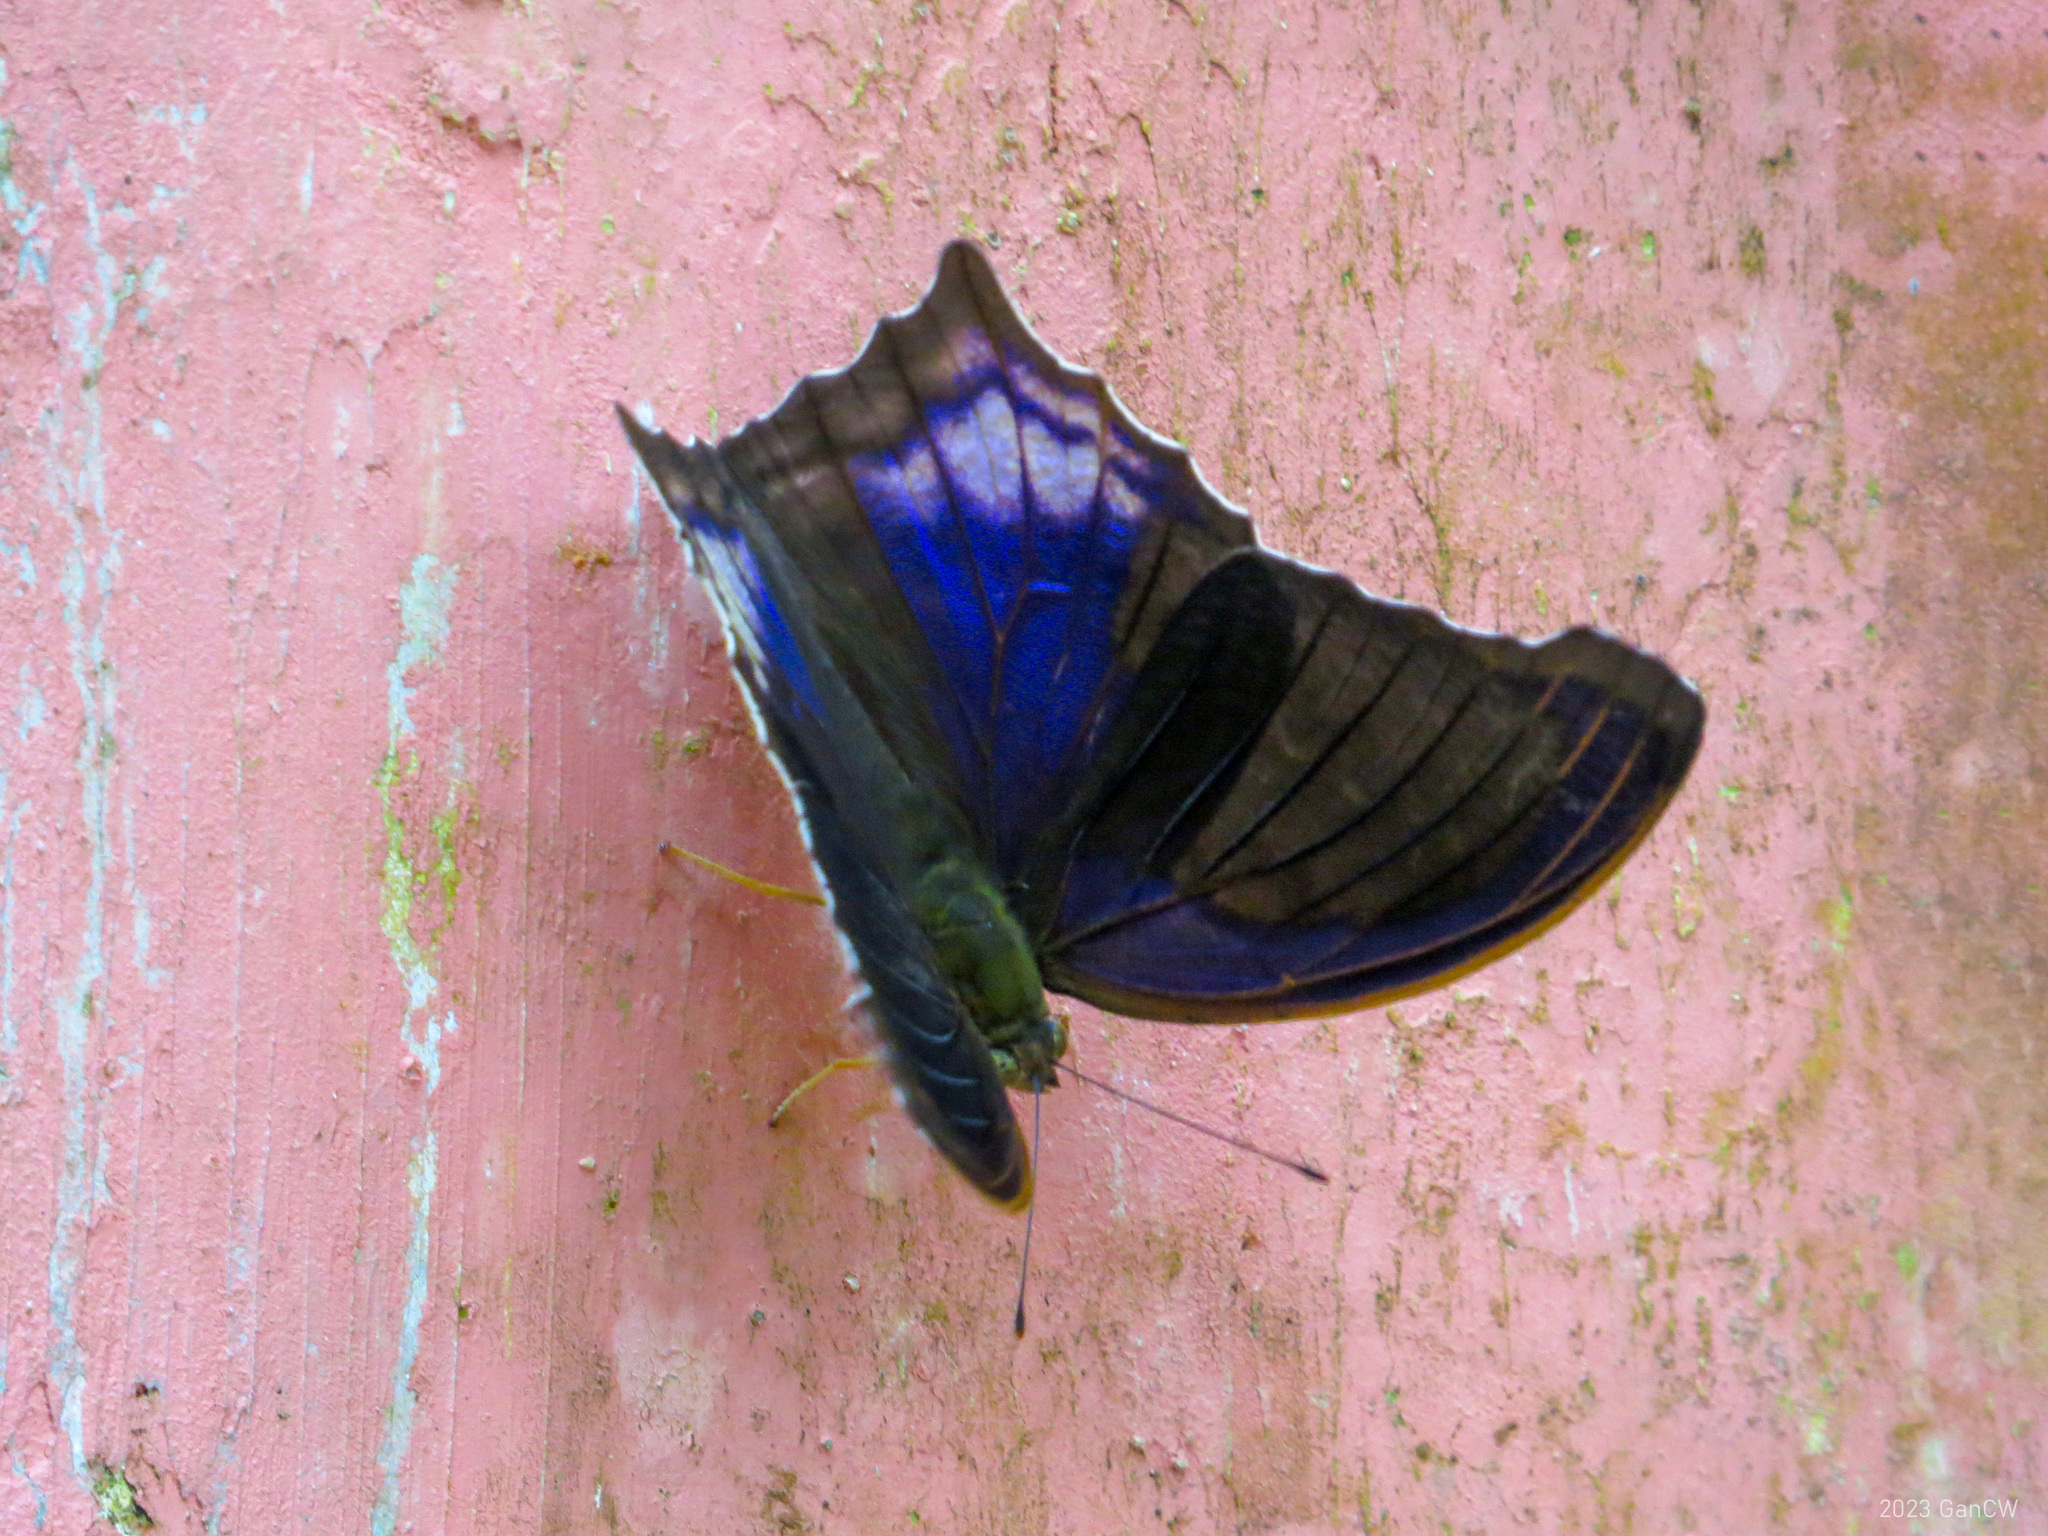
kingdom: Animalia
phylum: Arthropoda
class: Insecta
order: Lepidoptera
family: Nymphalidae
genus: Terinos
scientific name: Terinos atlita
